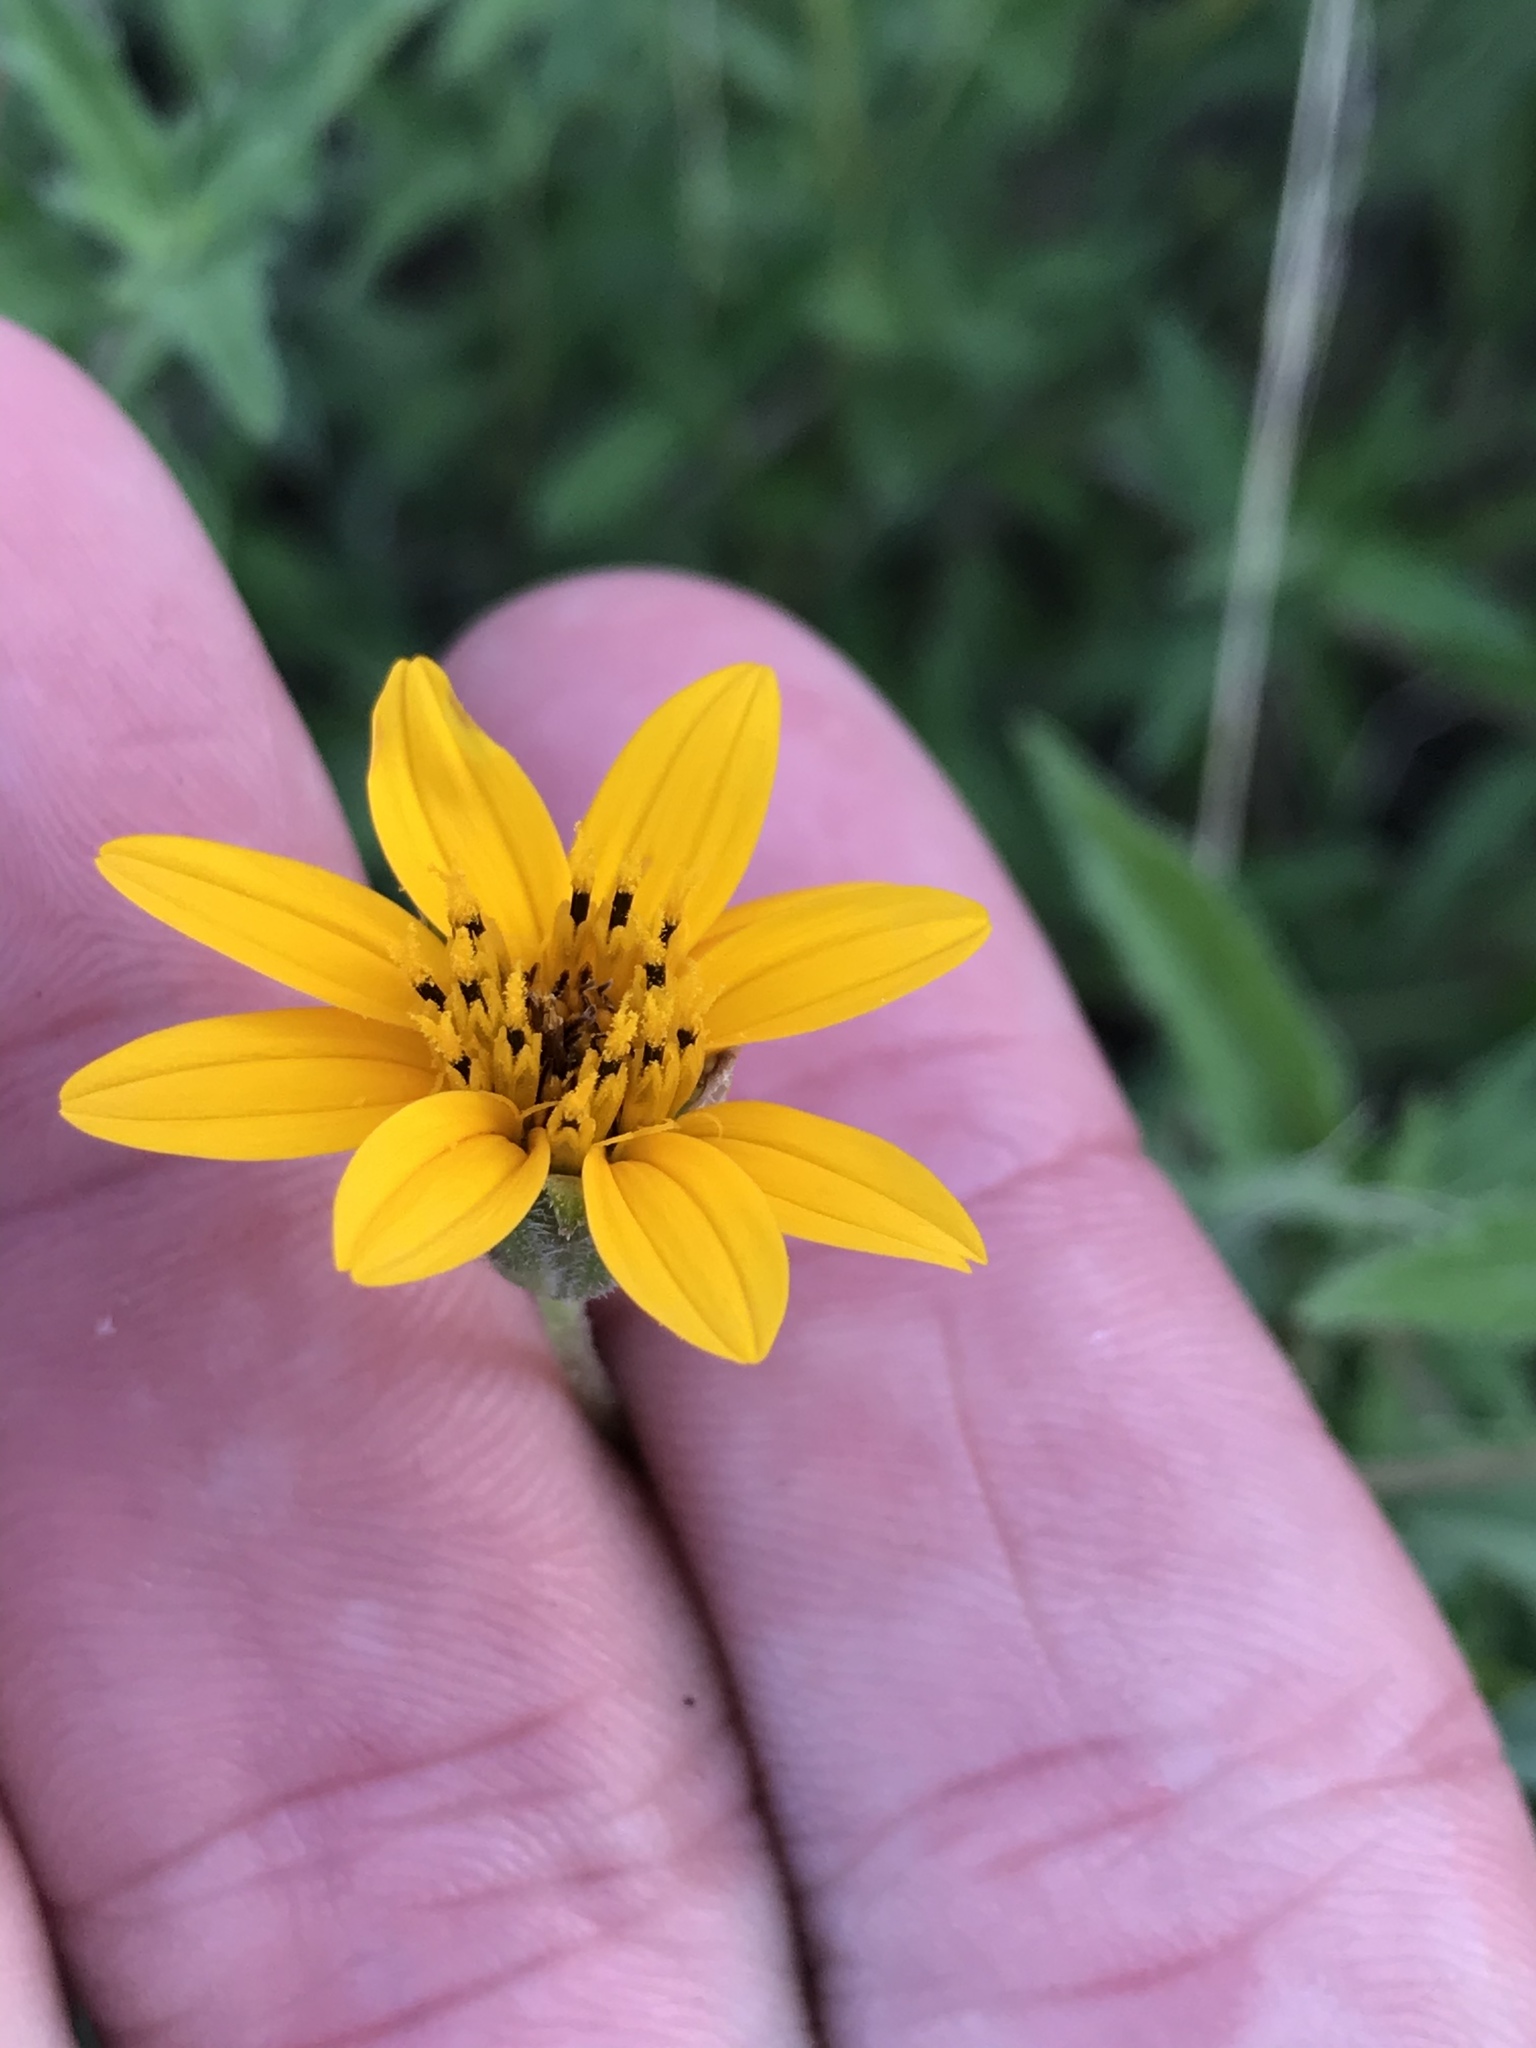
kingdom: Plantae
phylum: Tracheophyta
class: Magnoliopsida
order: Asterales
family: Asteraceae
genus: Wedelia
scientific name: Wedelia acapulcensis
